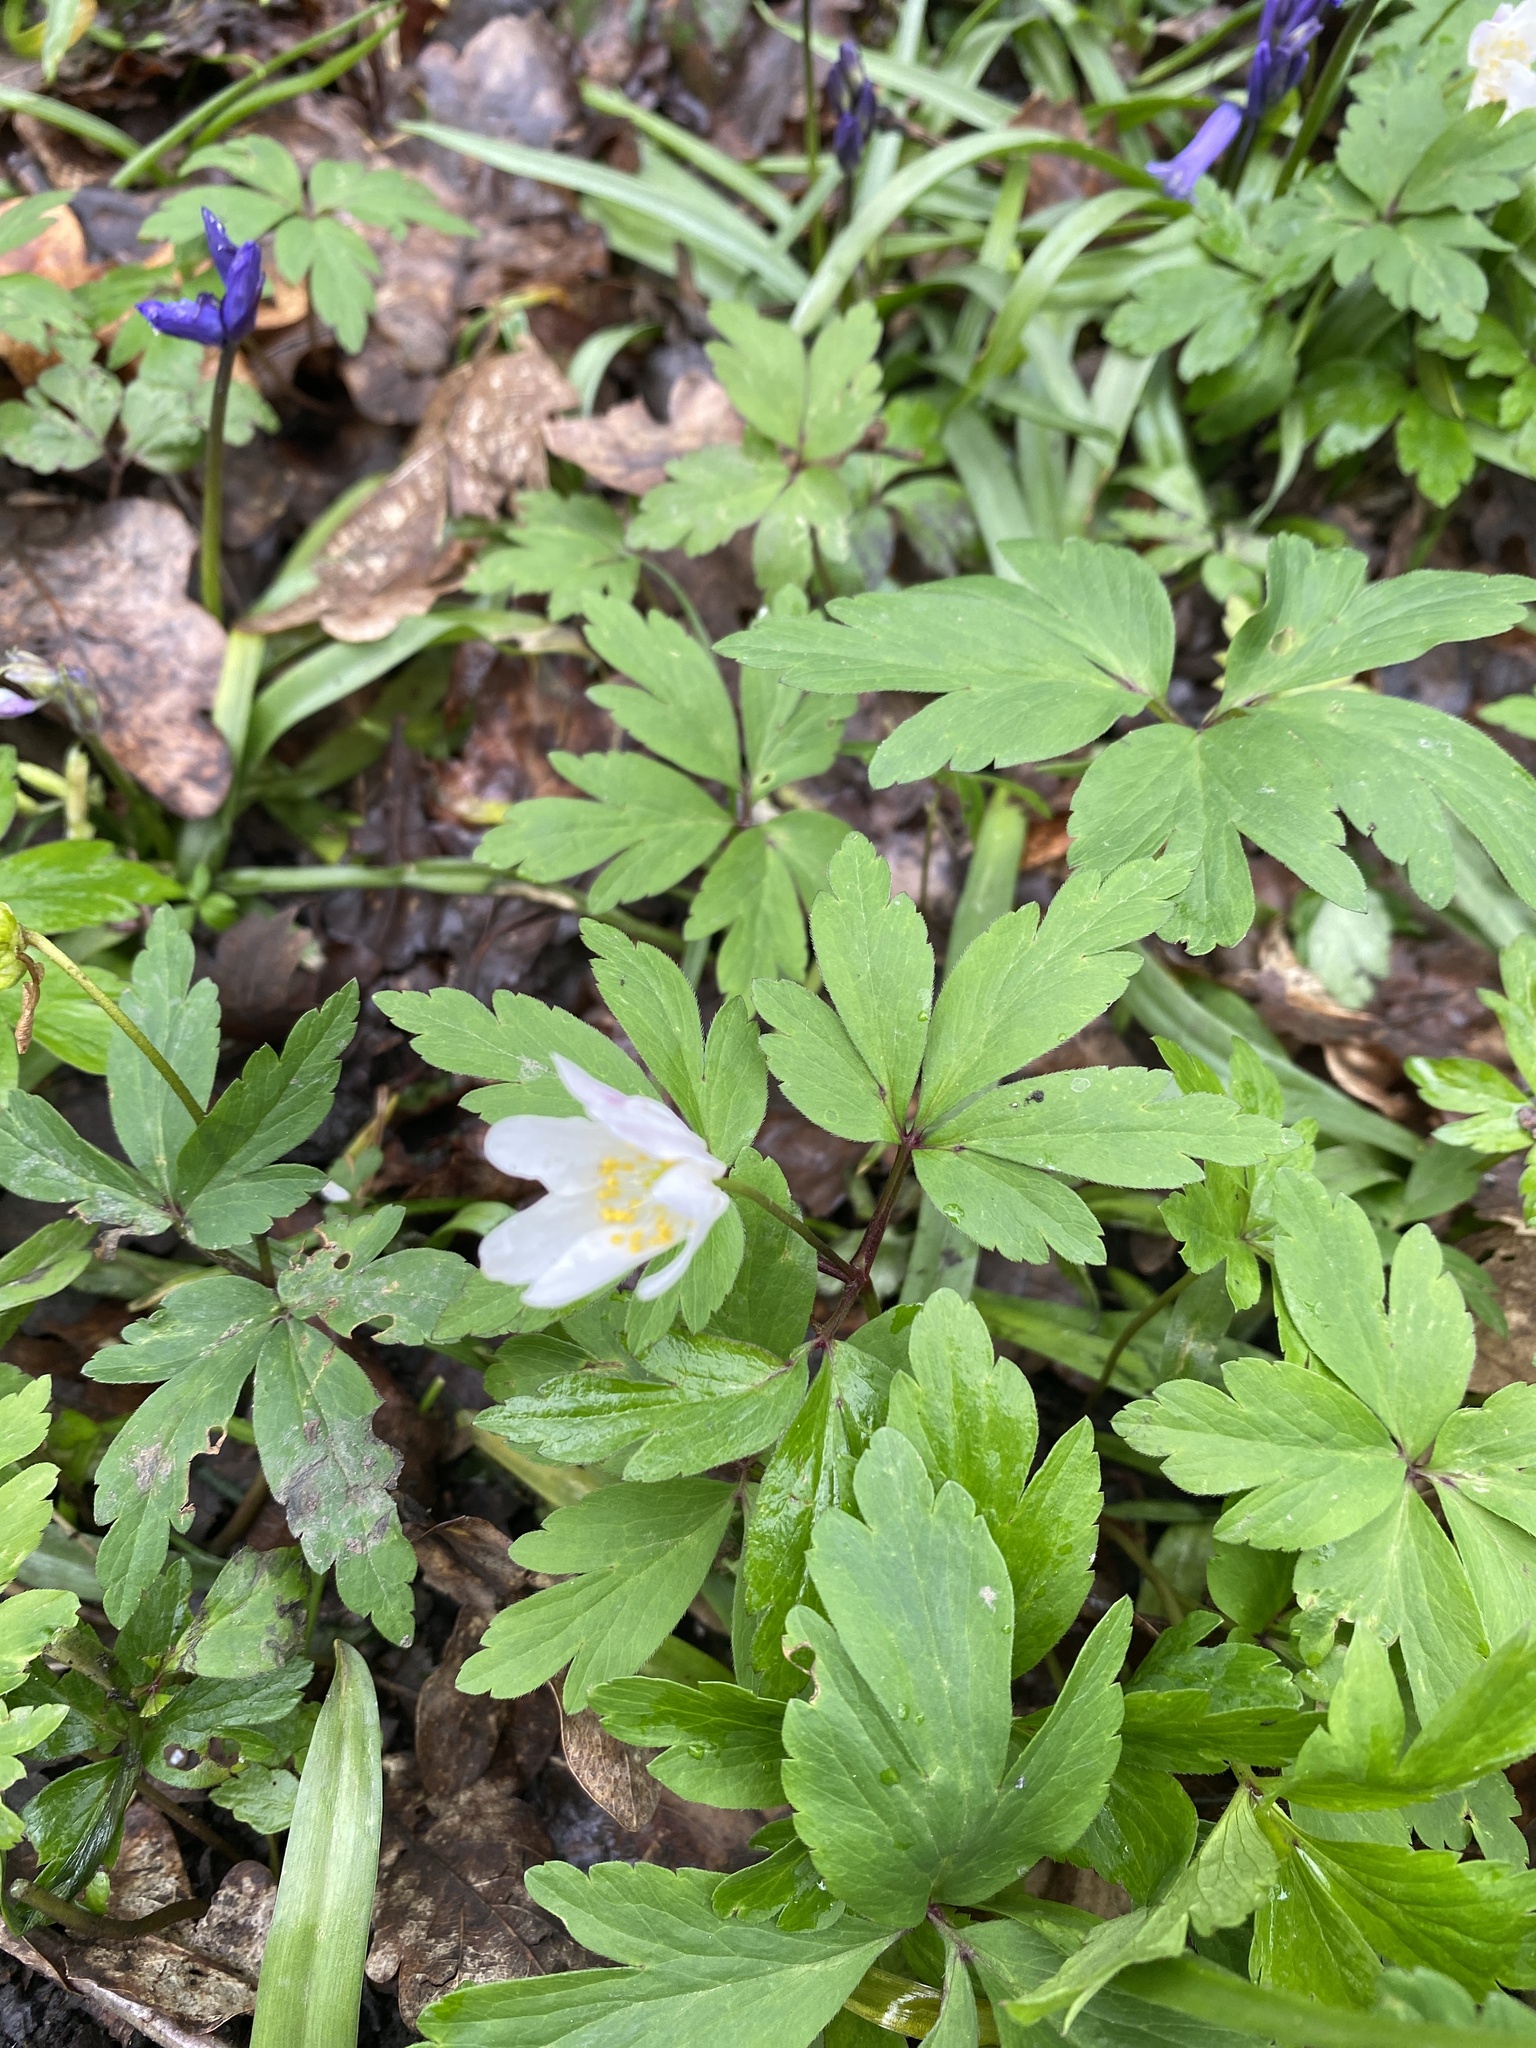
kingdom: Plantae
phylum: Tracheophyta
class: Magnoliopsida
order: Ranunculales
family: Ranunculaceae
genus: Anemone
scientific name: Anemone nemorosa
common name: Wood anemone
